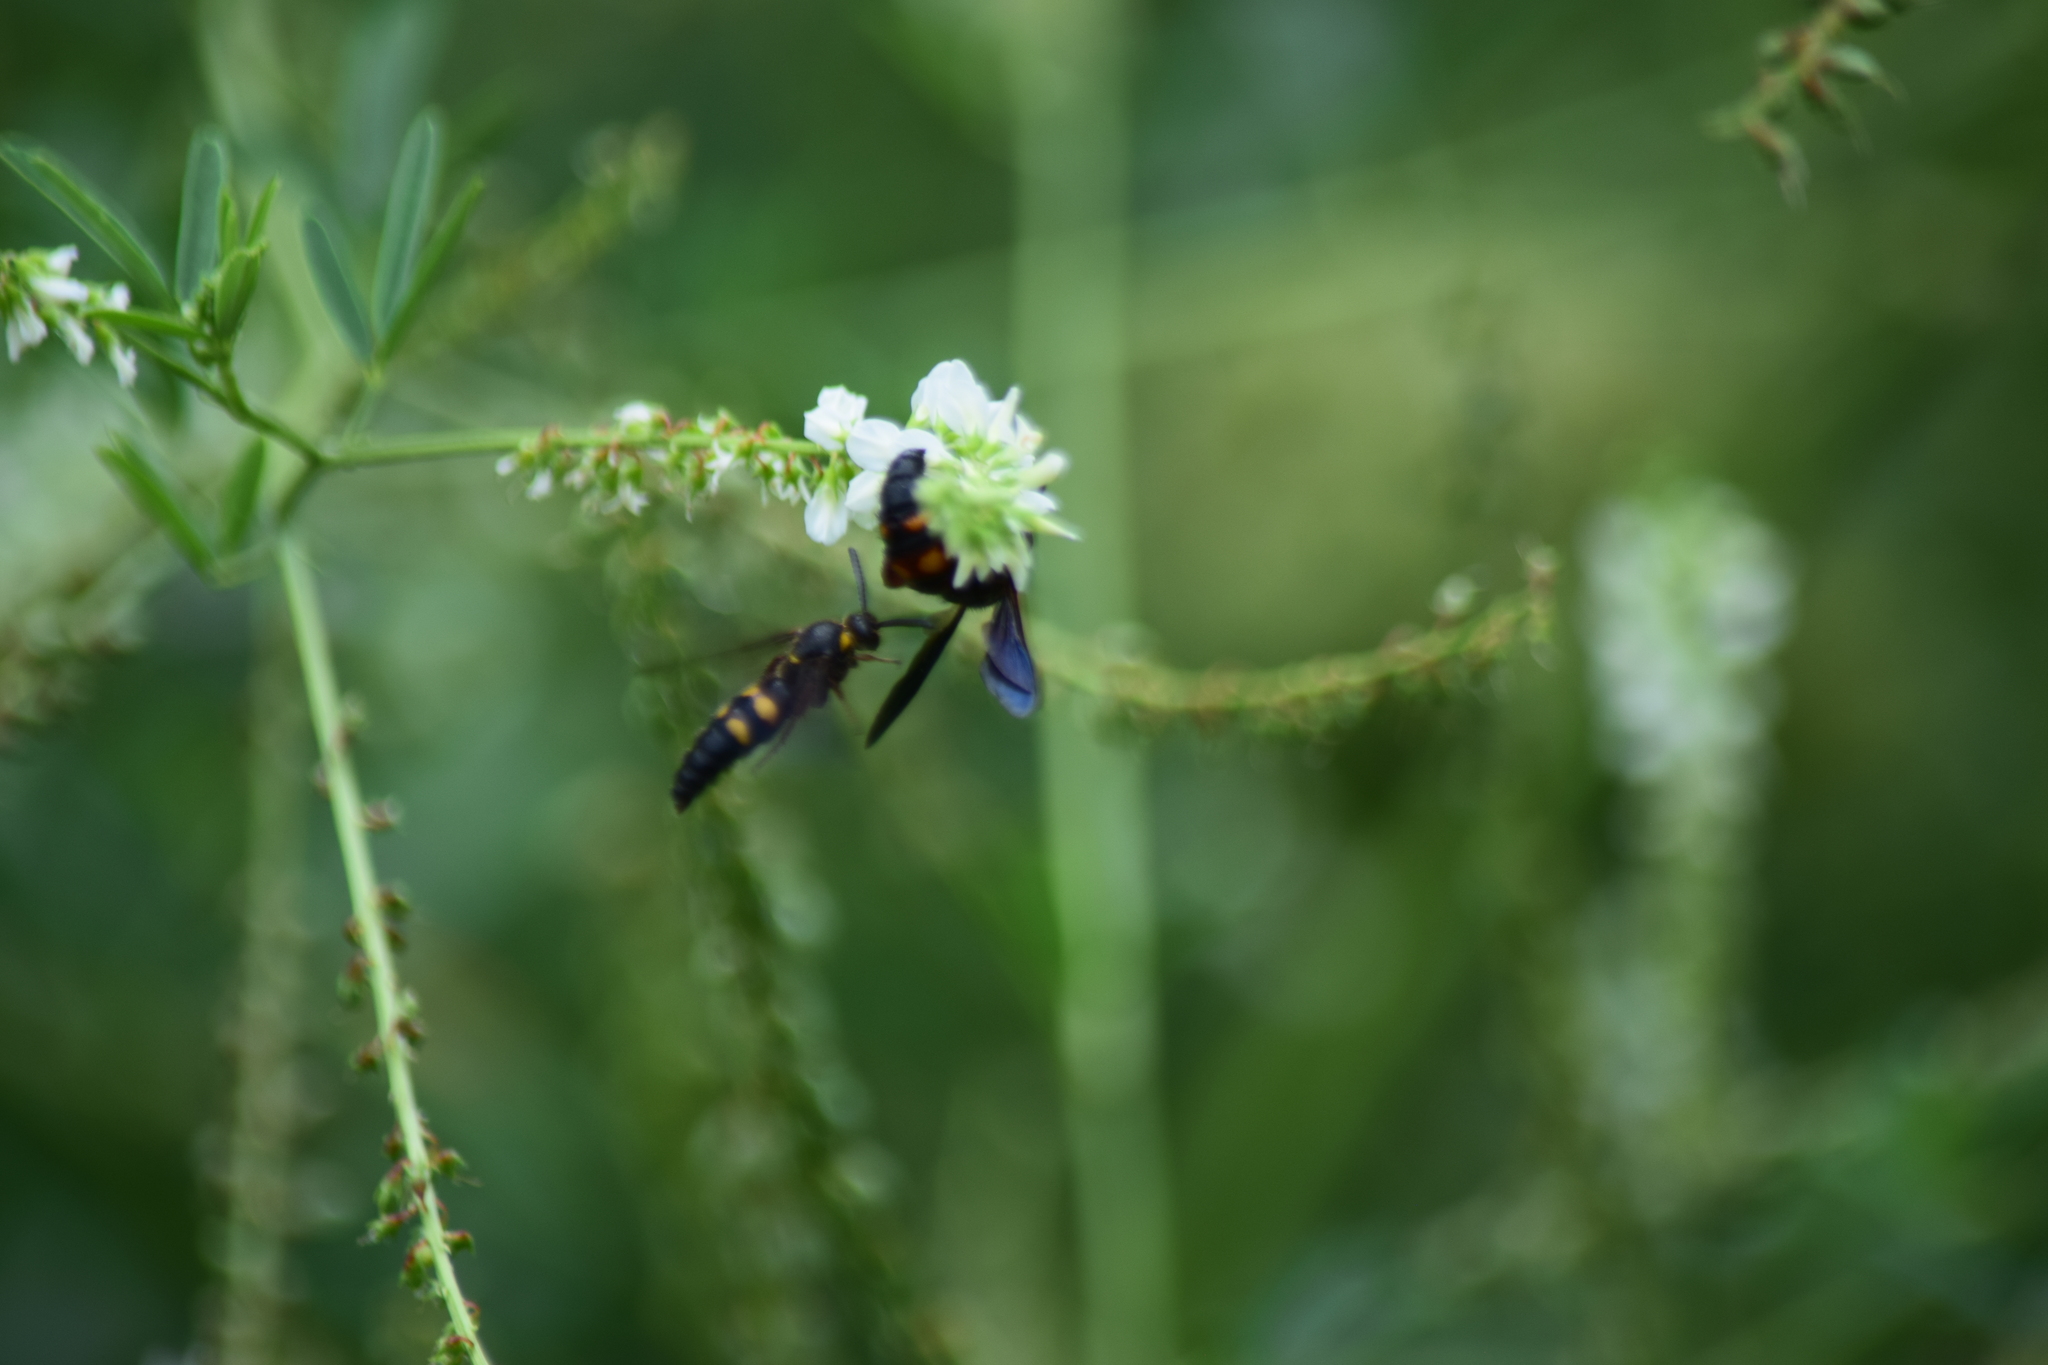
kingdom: Animalia
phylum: Arthropoda
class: Insecta
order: Hymenoptera
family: Scoliidae
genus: Scolia
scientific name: Scolia nobilitata
